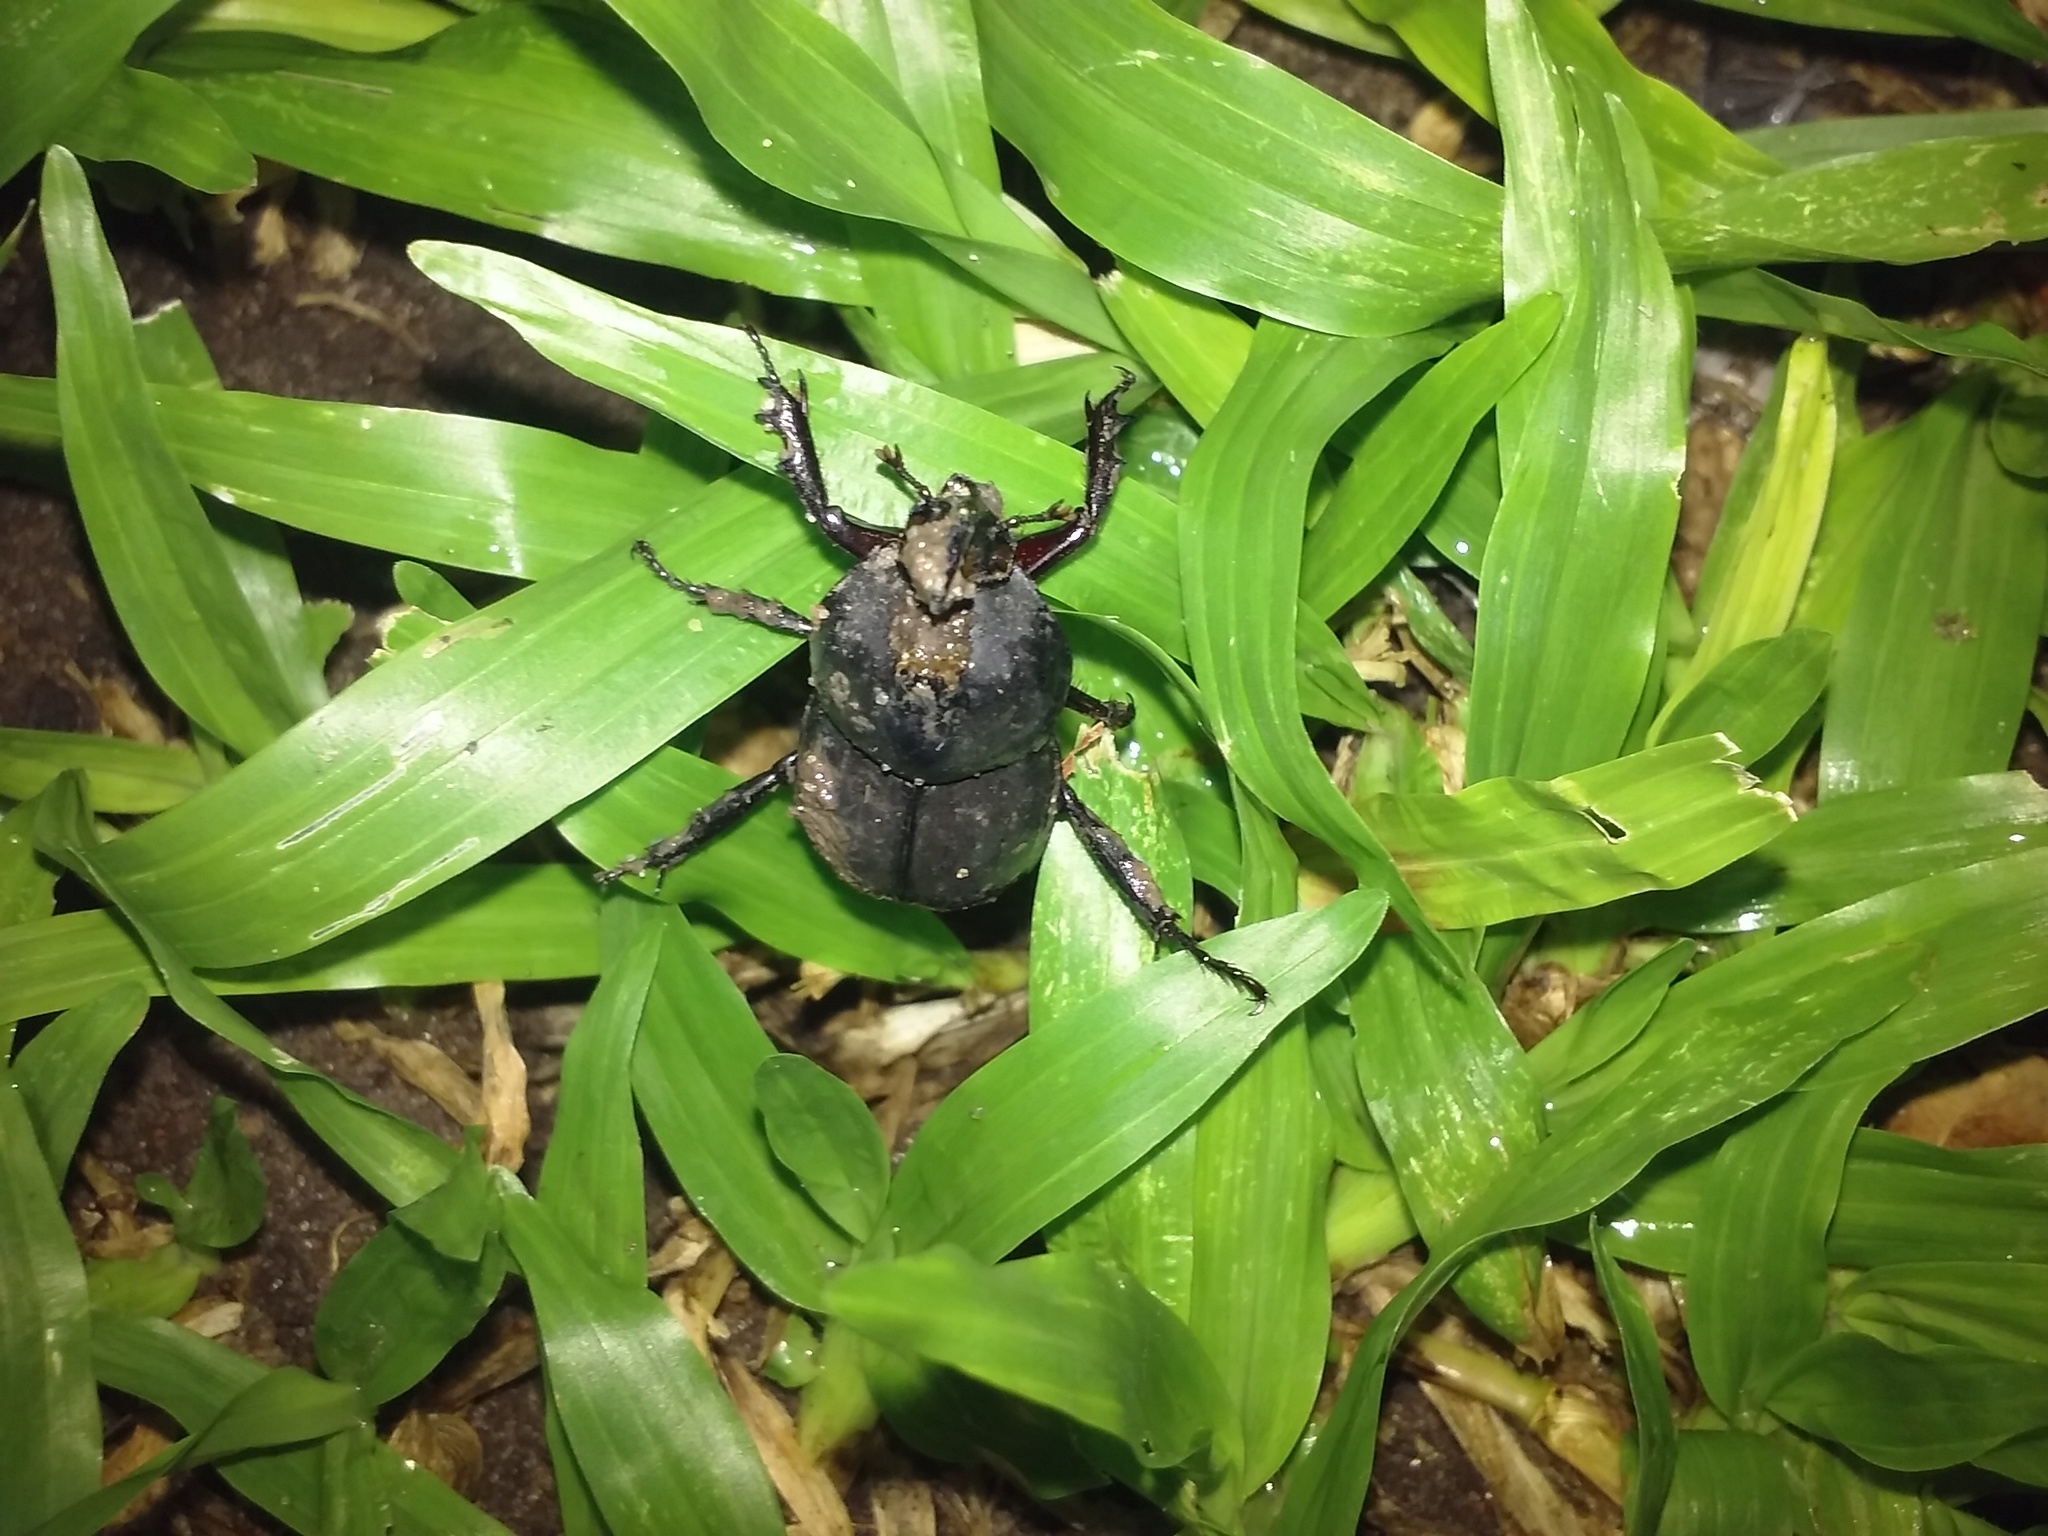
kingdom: Animalia
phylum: Arthropoda
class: Insecta
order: Coleoptera
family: Scarabaeidae
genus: Diloboderus
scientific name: Diloboderus abderus
